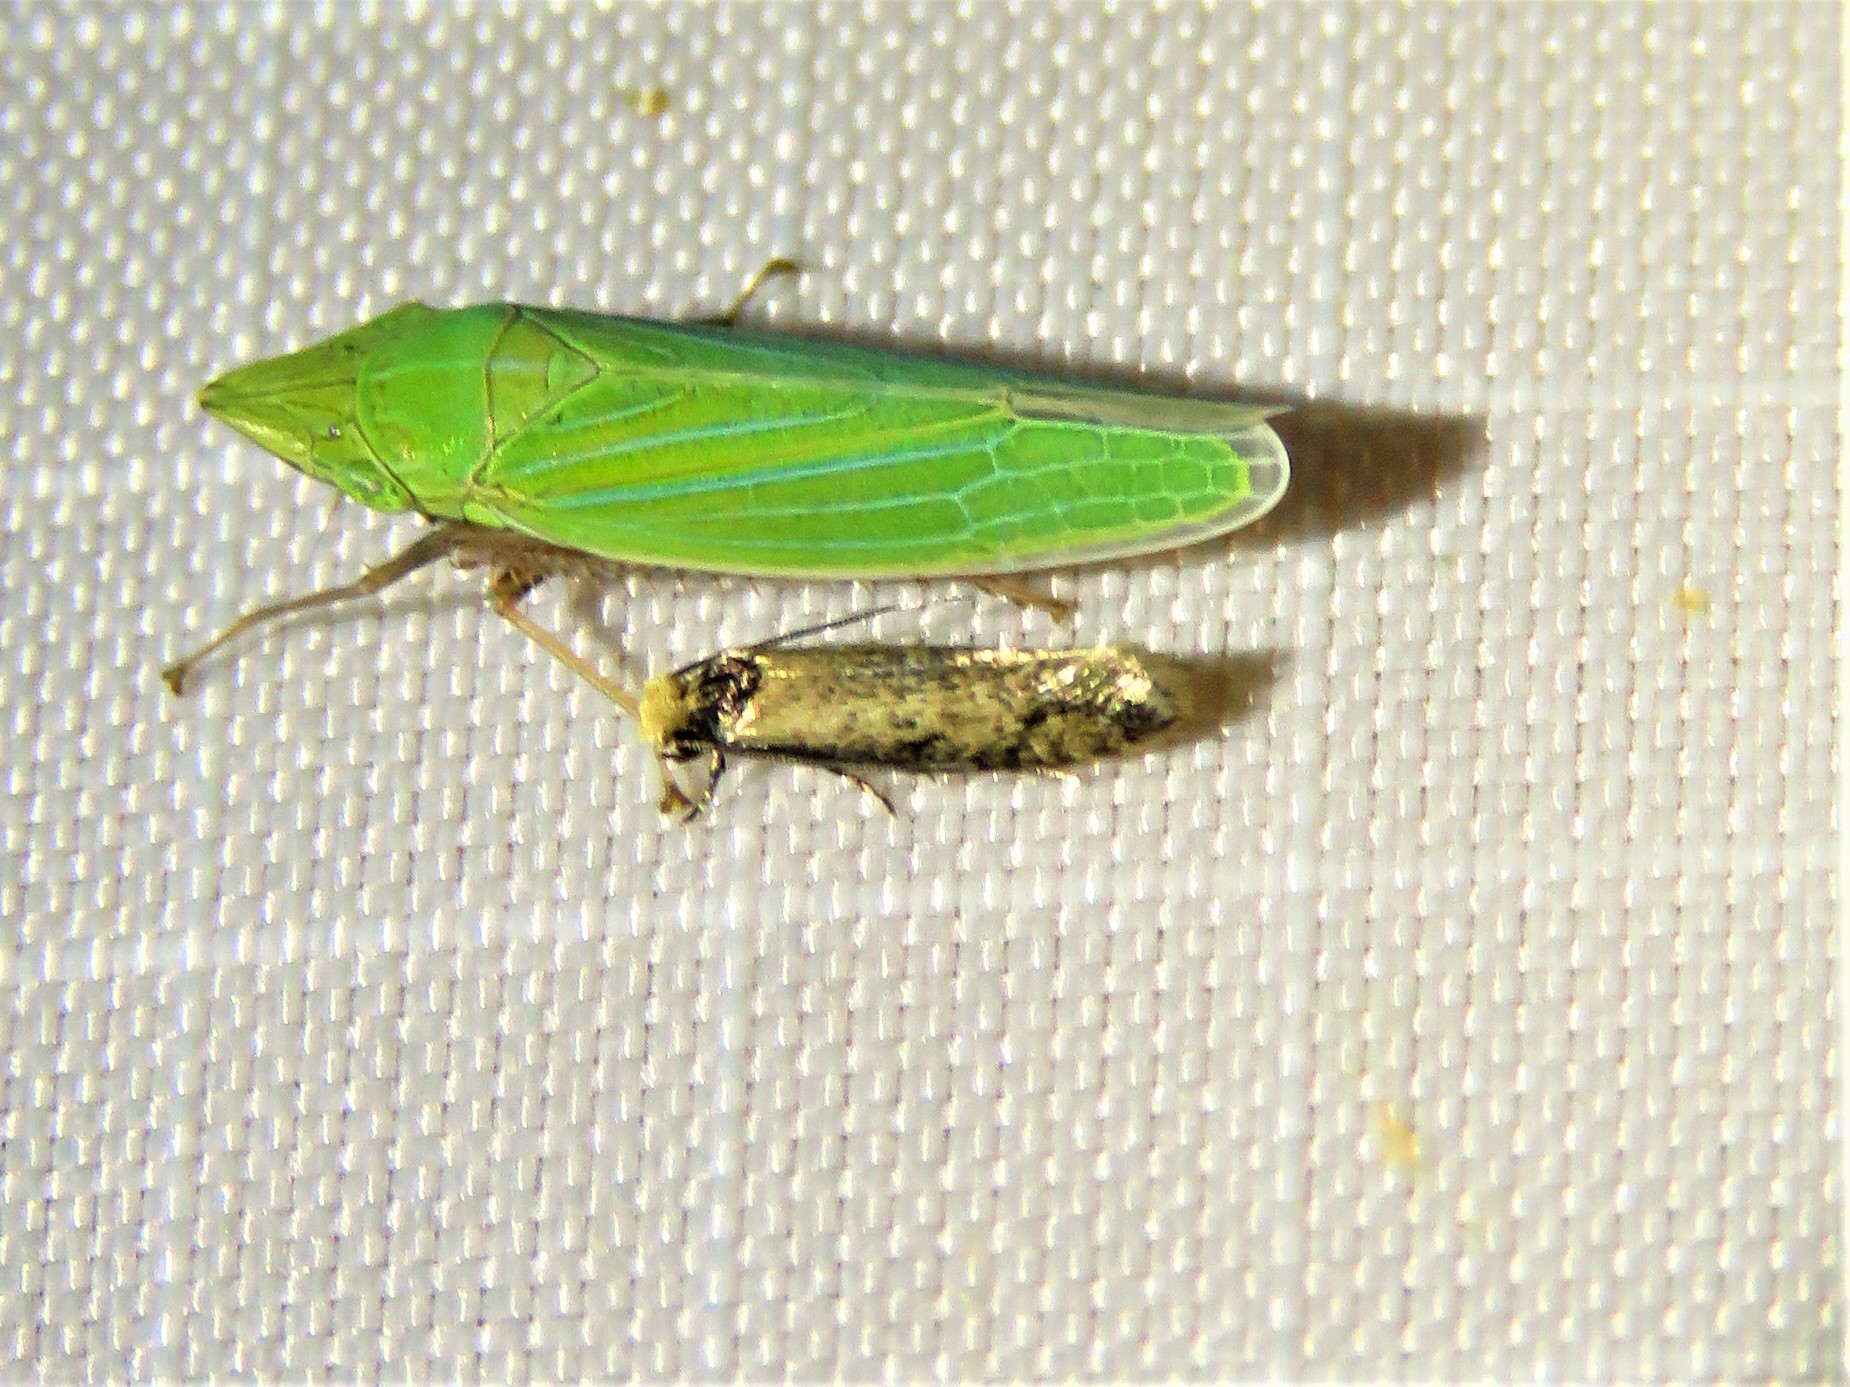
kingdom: Animalia
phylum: Arthropoda
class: Insecta
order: Lepidoptera
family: Meessiidae
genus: Homostinea
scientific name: Homostinea curviliniella
